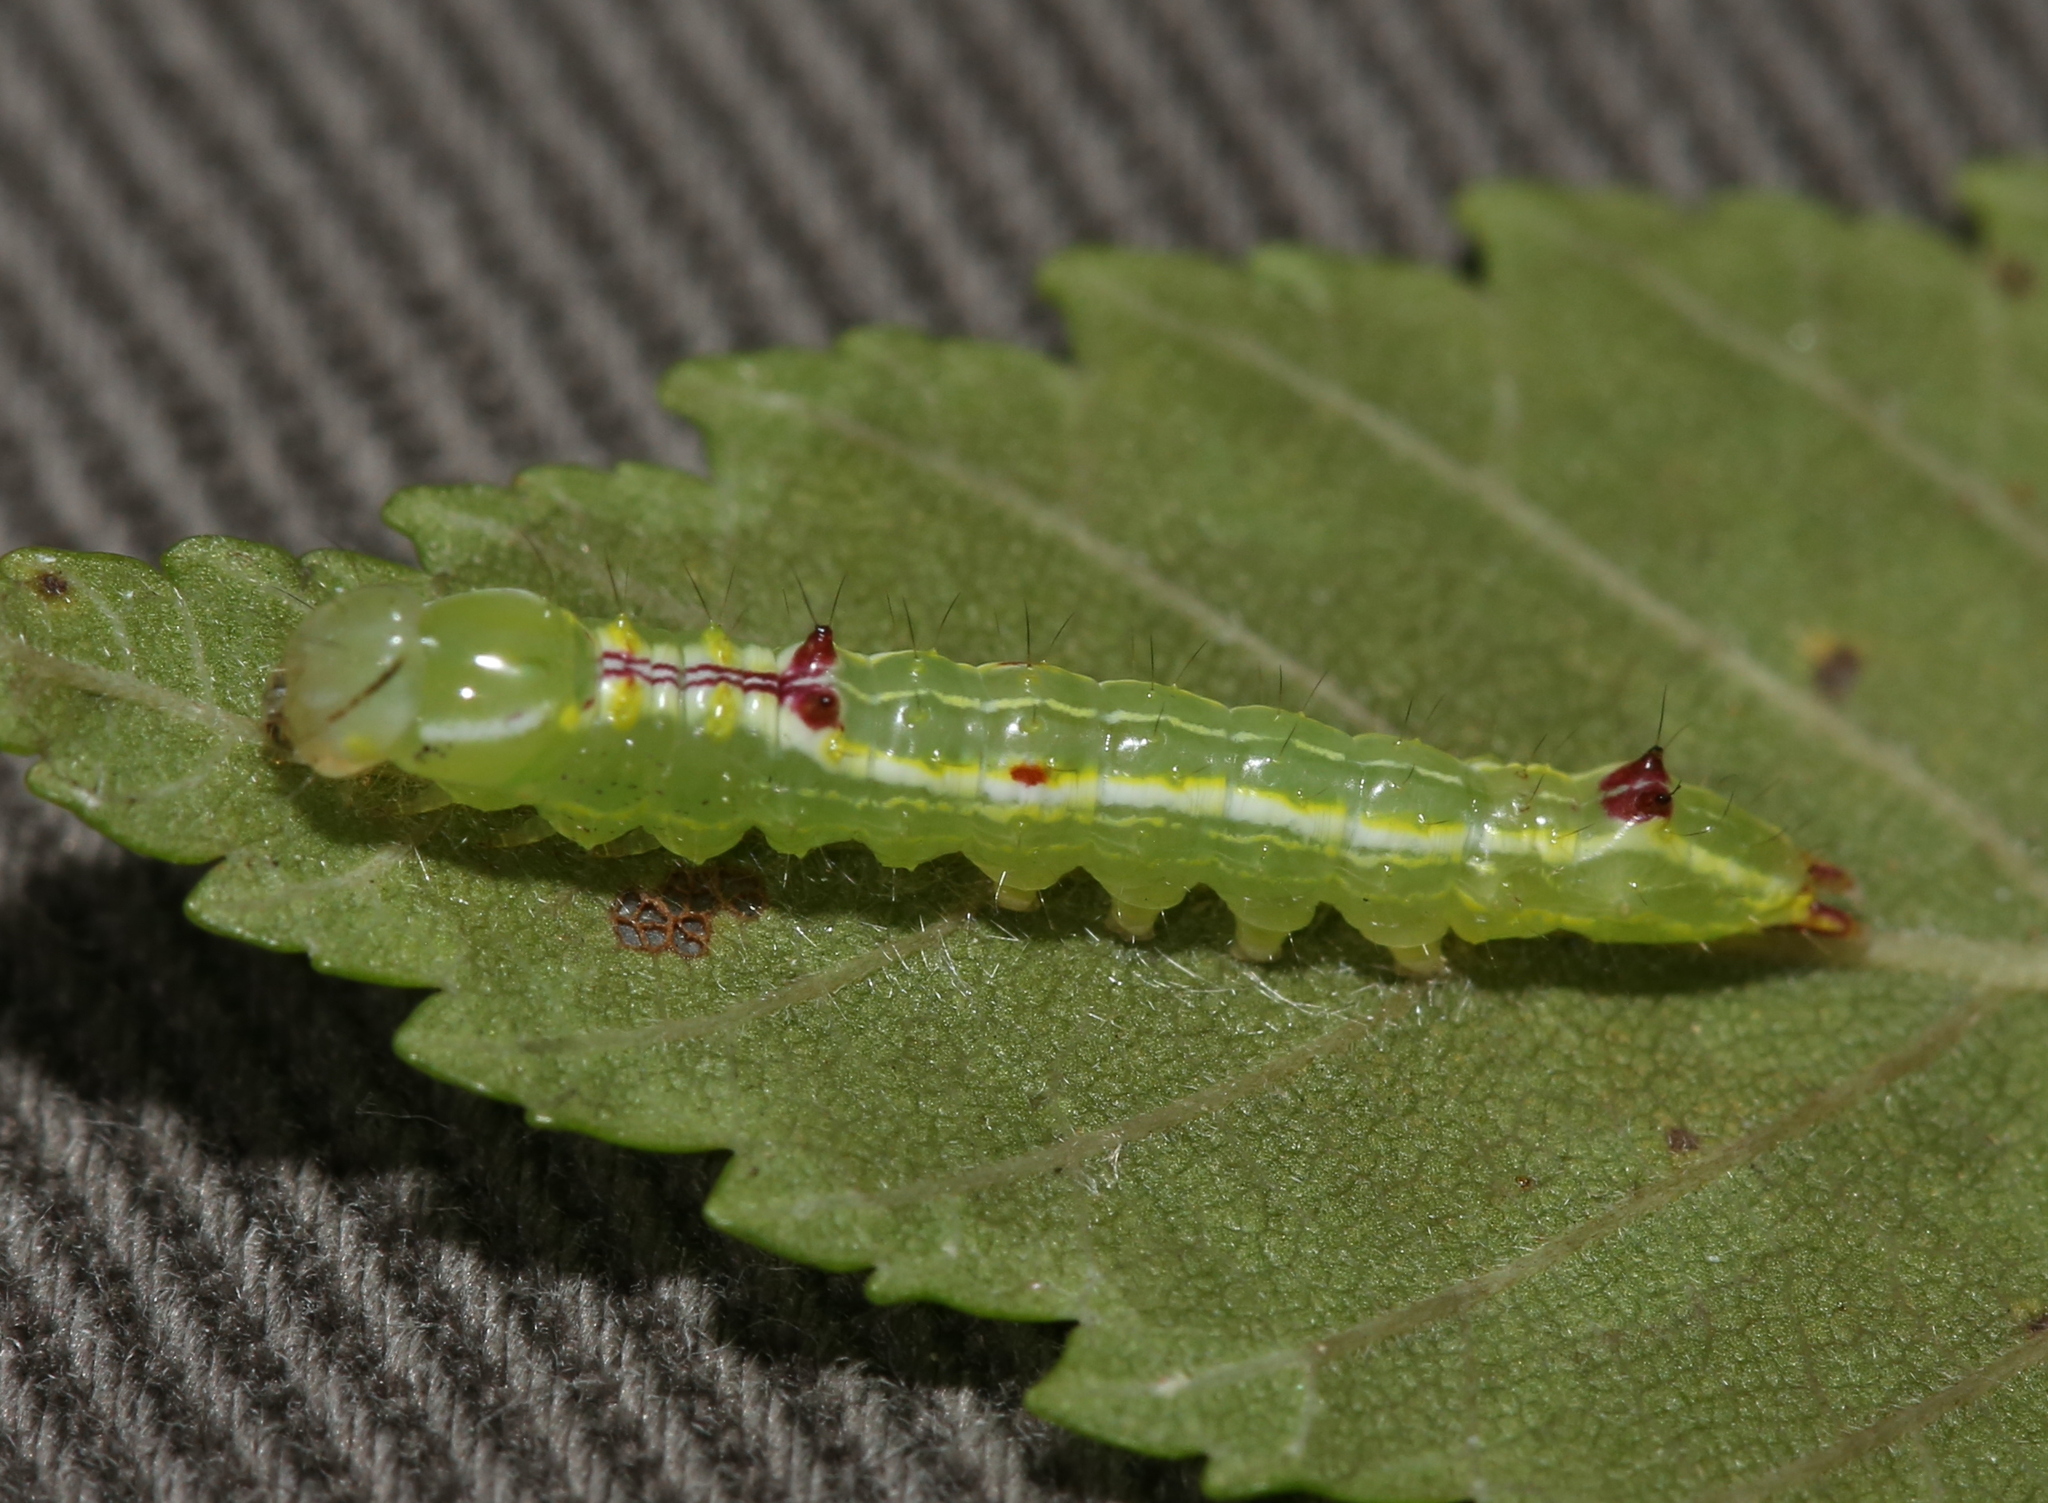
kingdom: Animalia
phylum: Arthropoda
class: Insecta
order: Lepidoptera
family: Notodontidae
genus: Lochmaeus
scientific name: Lochmaeus bilineata
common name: Double-lined prominent
